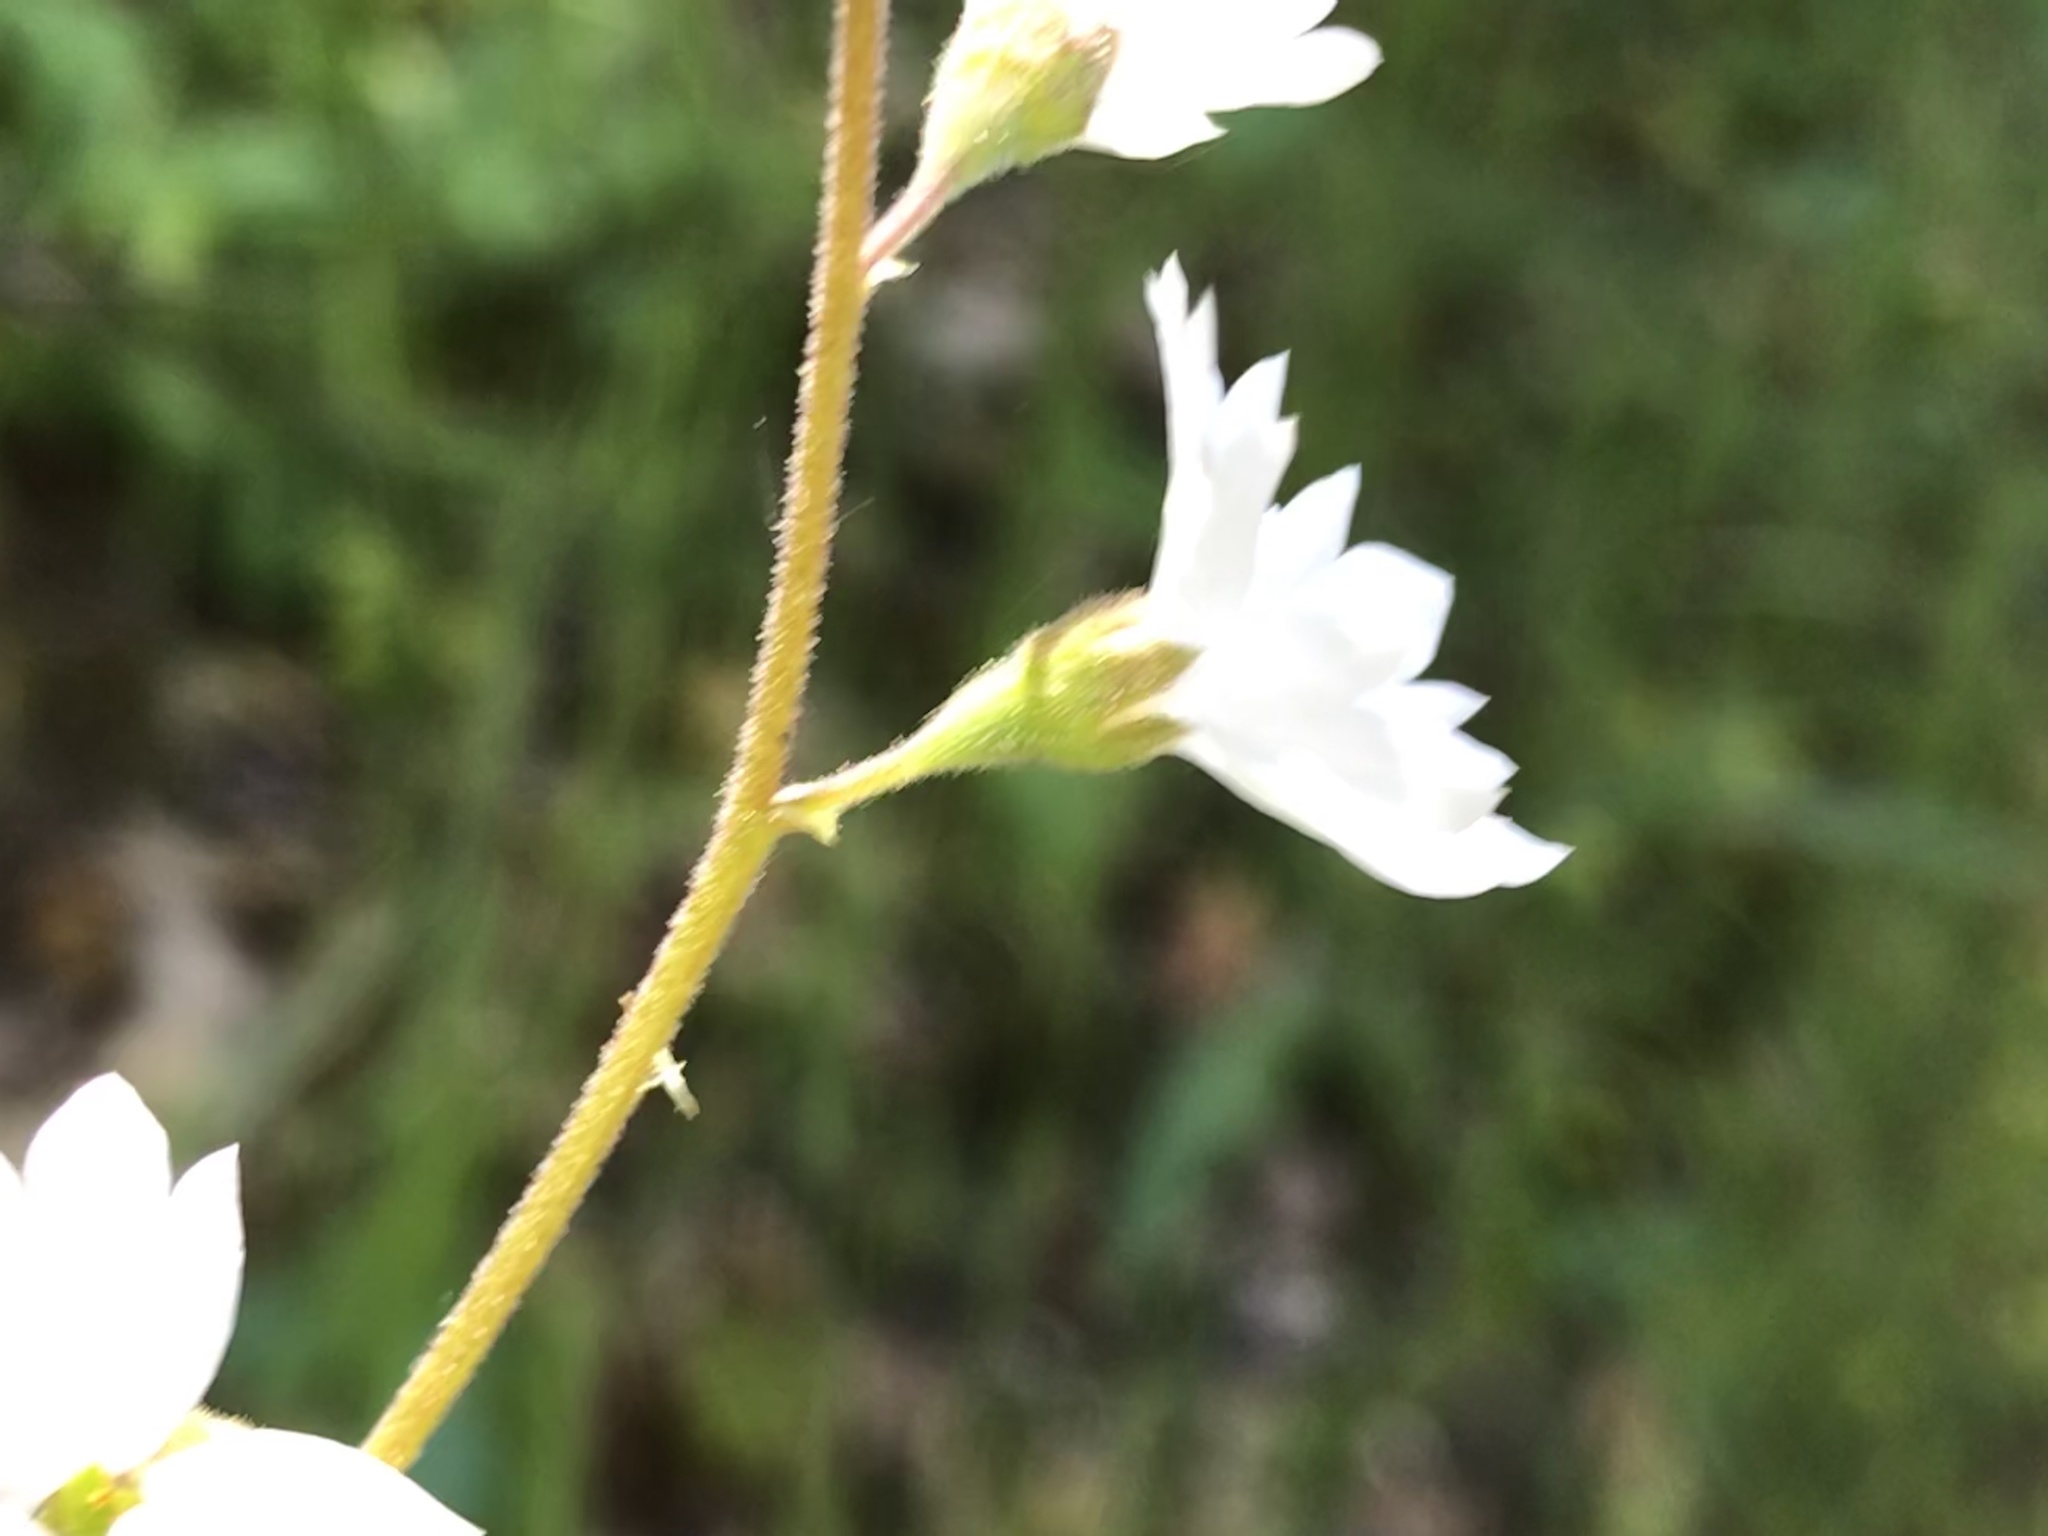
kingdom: Plantae
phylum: Tracheophyta
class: Magnoliopsida
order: Saxifragales
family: Saxifragaceae
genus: Lithophragma
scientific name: Lithophragma affine
